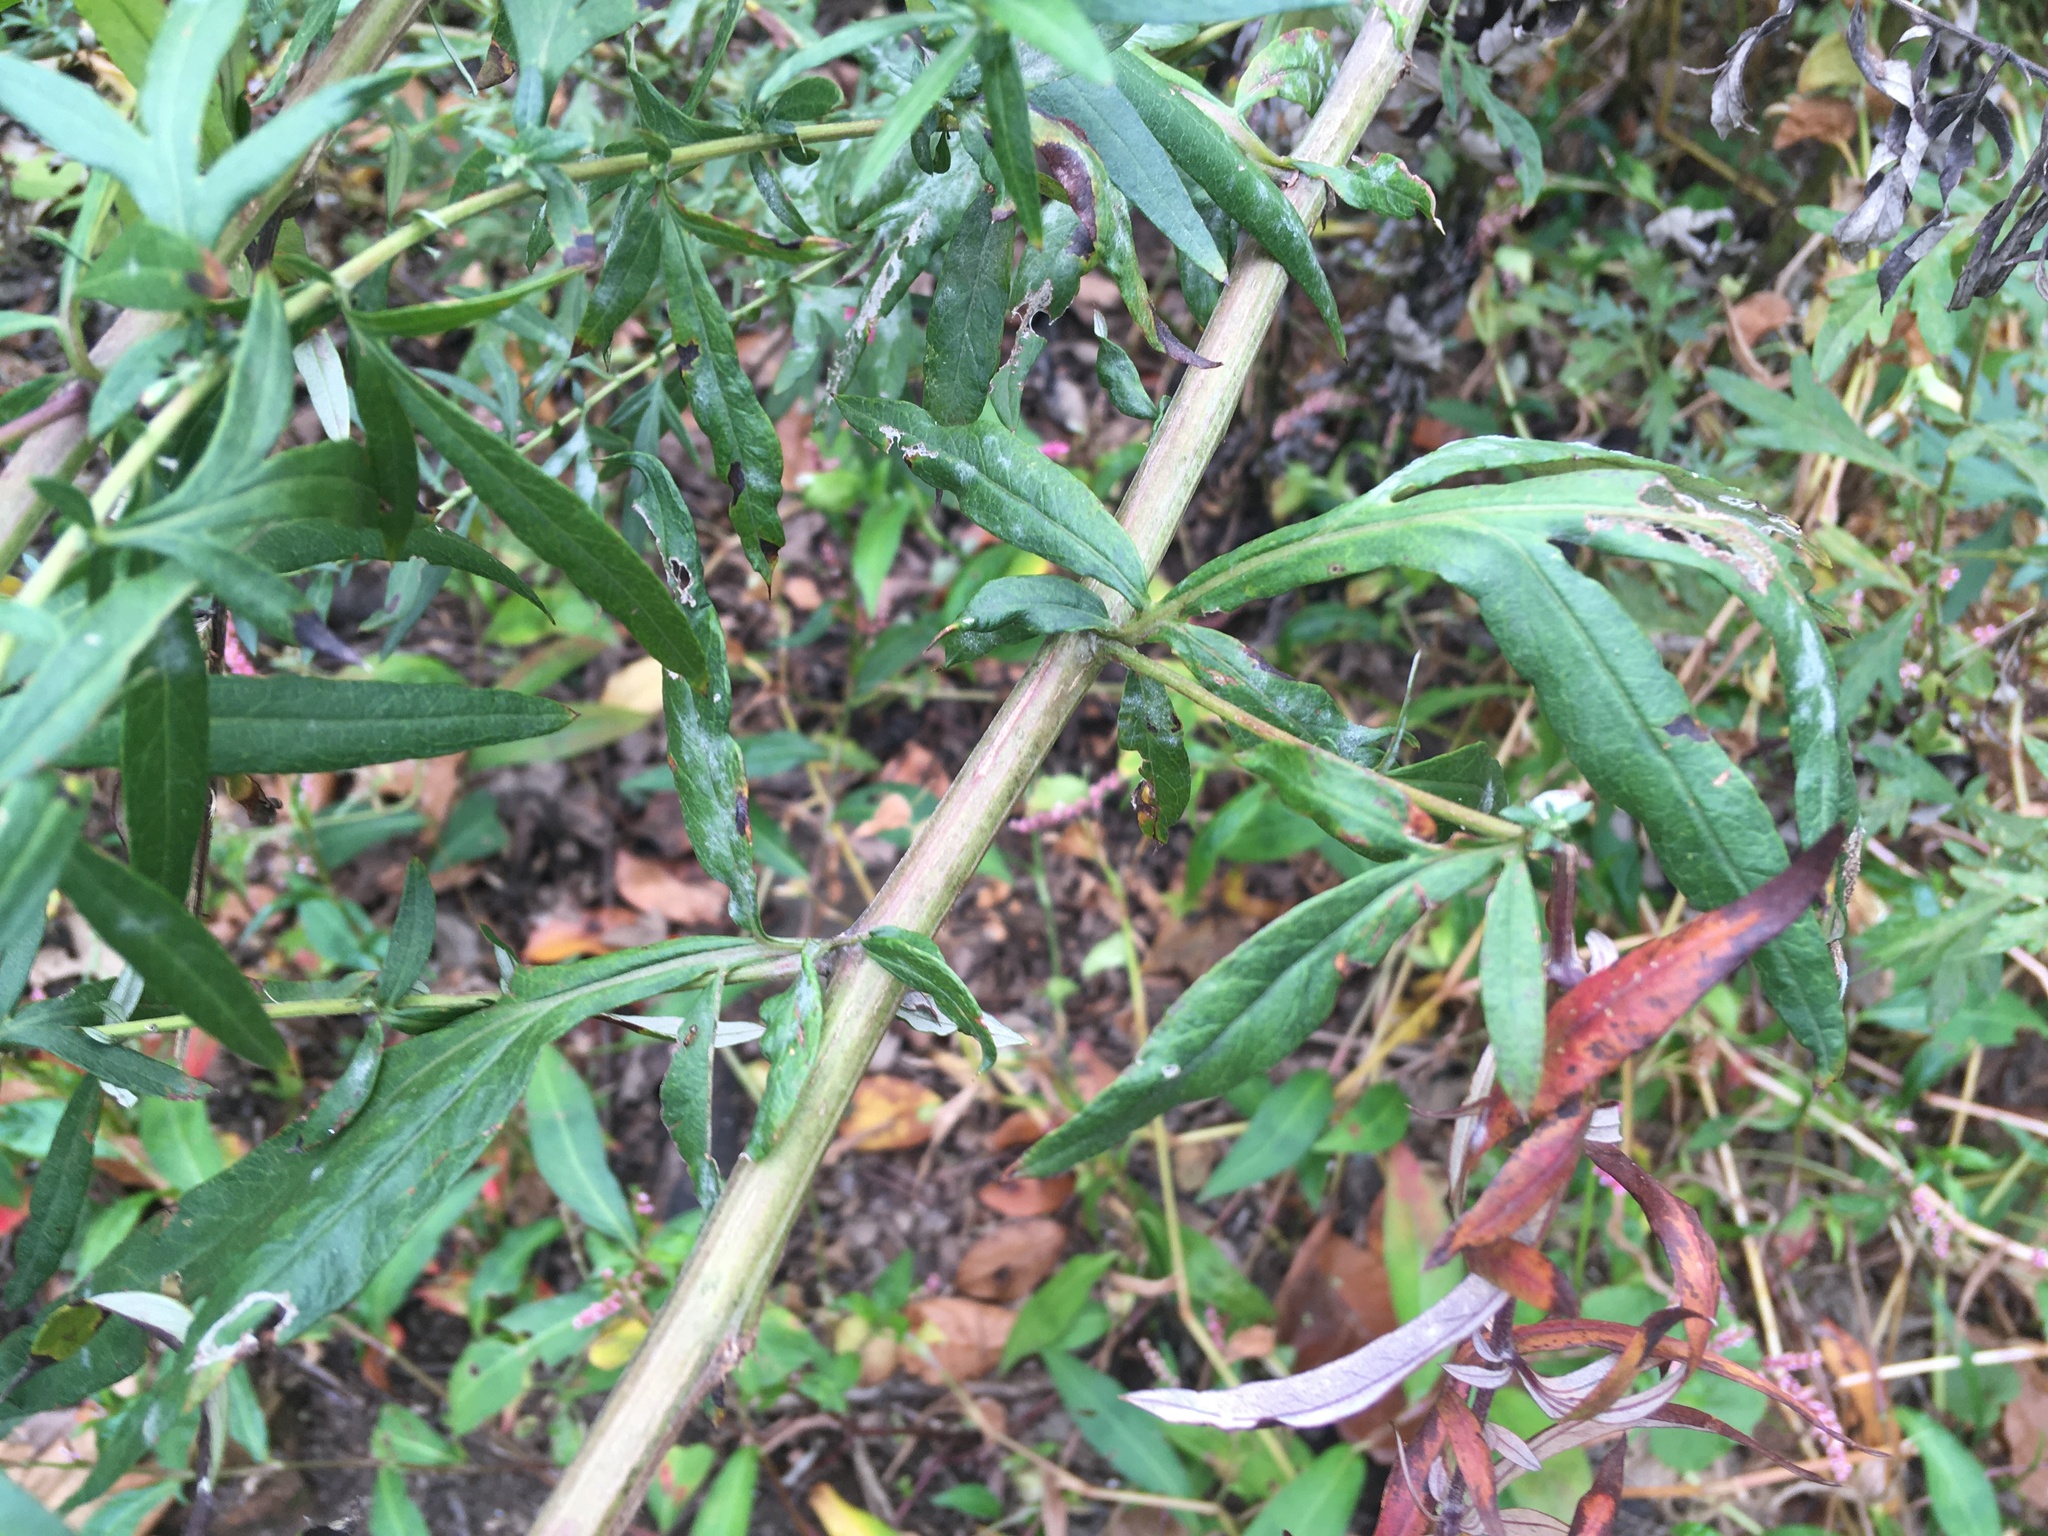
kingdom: Plantae
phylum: Tracheophyta
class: Magnoliopsida
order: Asterales
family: Asteraceae
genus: Artemisia
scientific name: Artemisia vulgaris
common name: Mugwort
